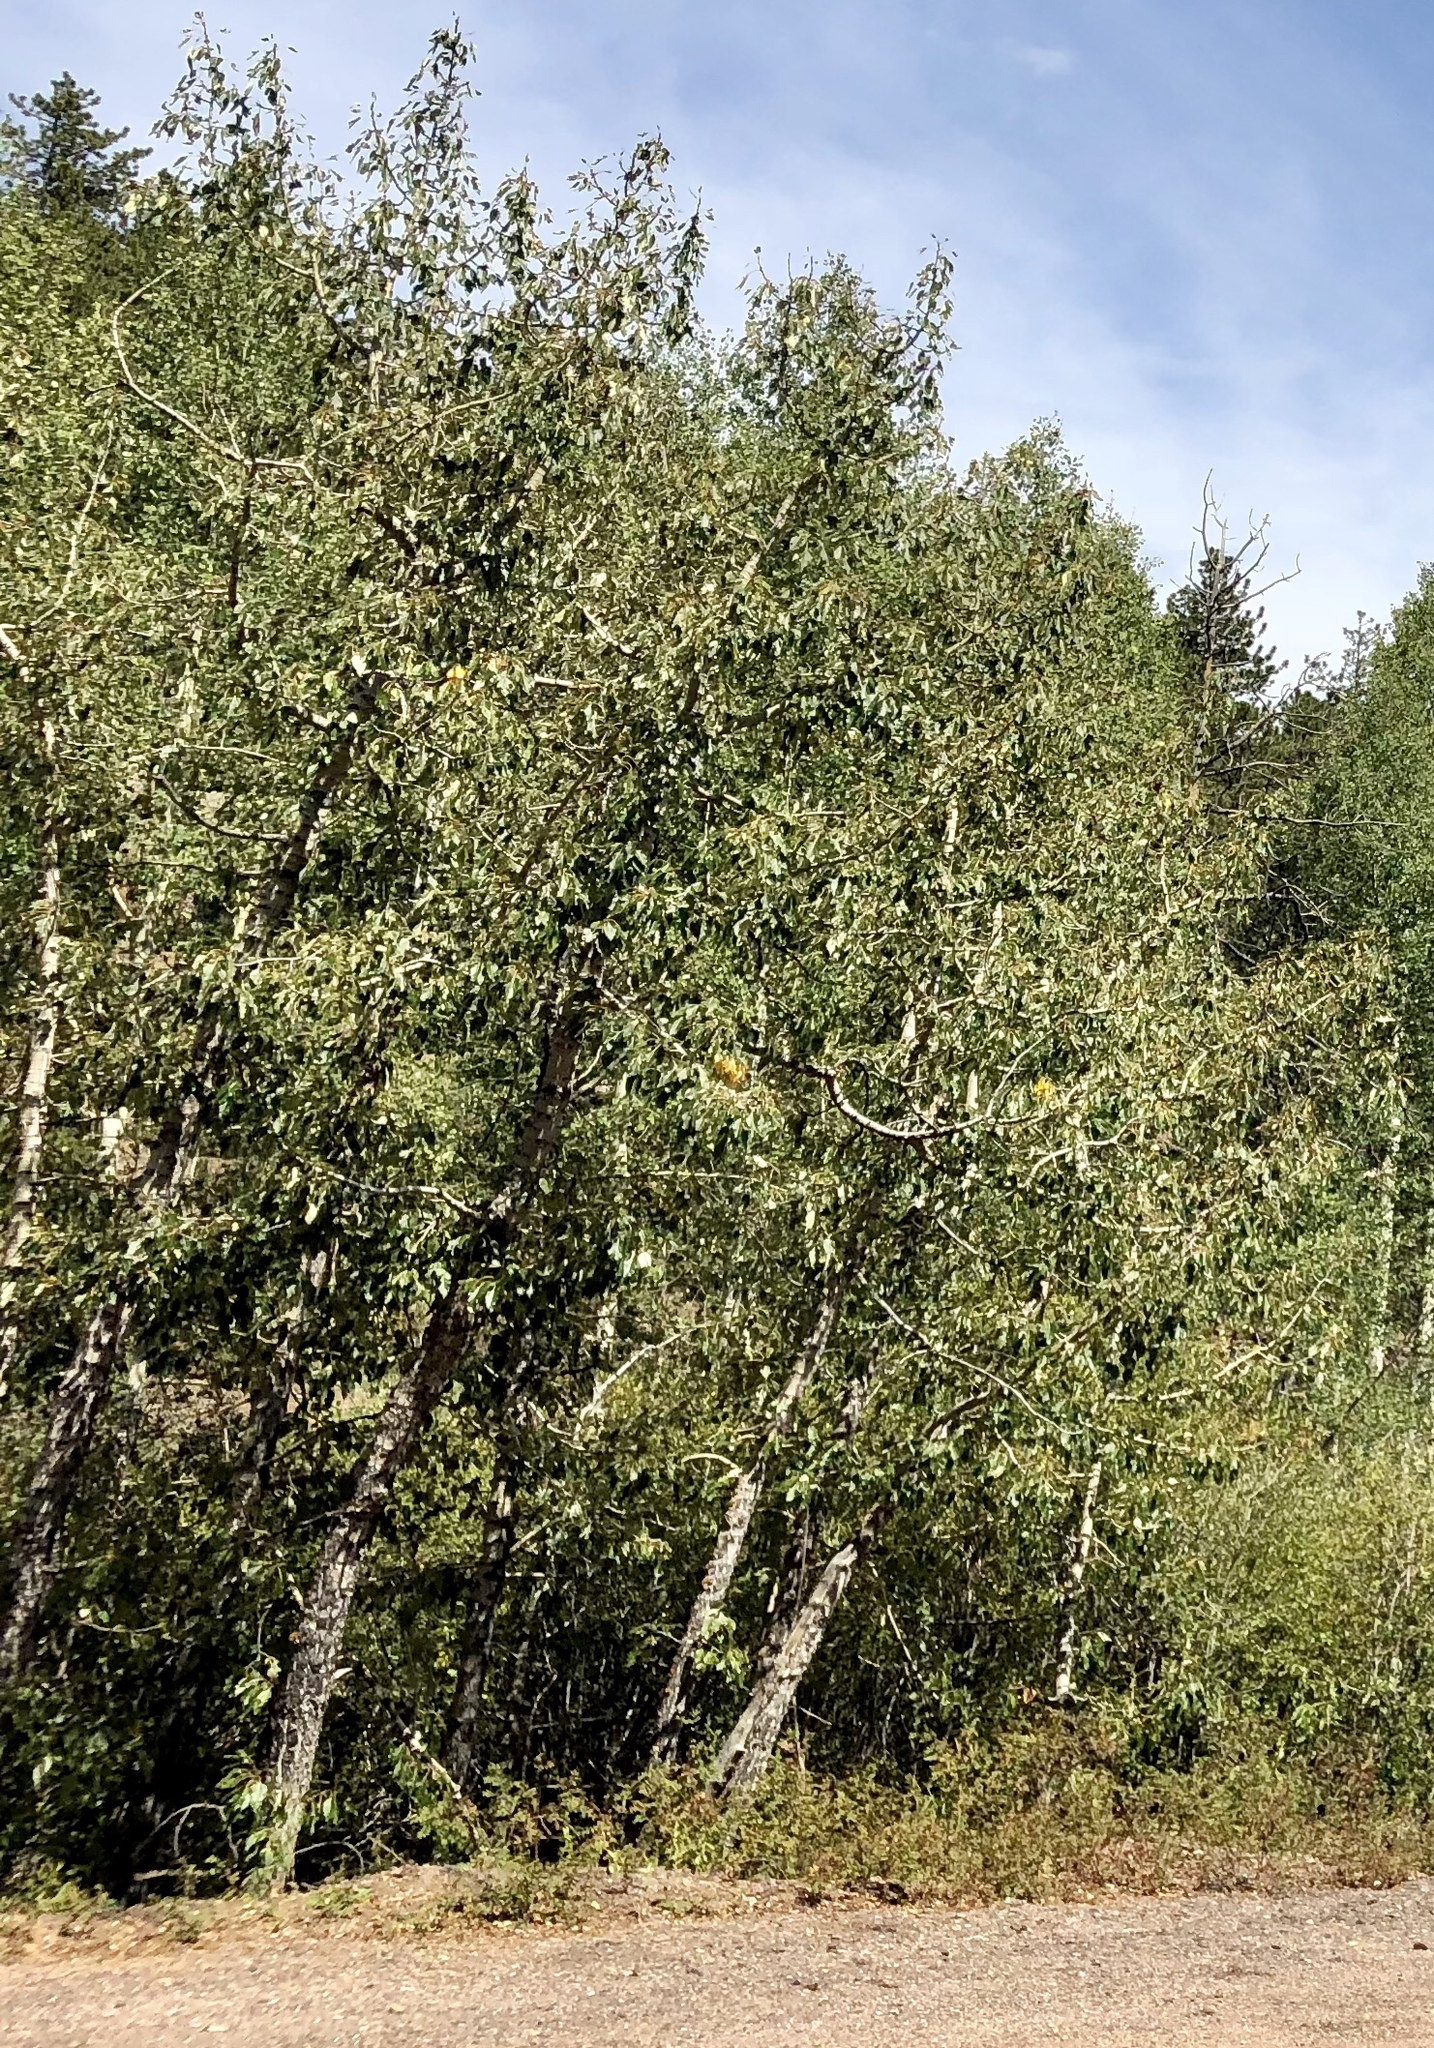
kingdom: Plantae
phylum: Tracheophyta
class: Magnoliopsida
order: Malpighiales
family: Salicaceae
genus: Populus
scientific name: Populus tremuloides
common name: Quaking aspen
